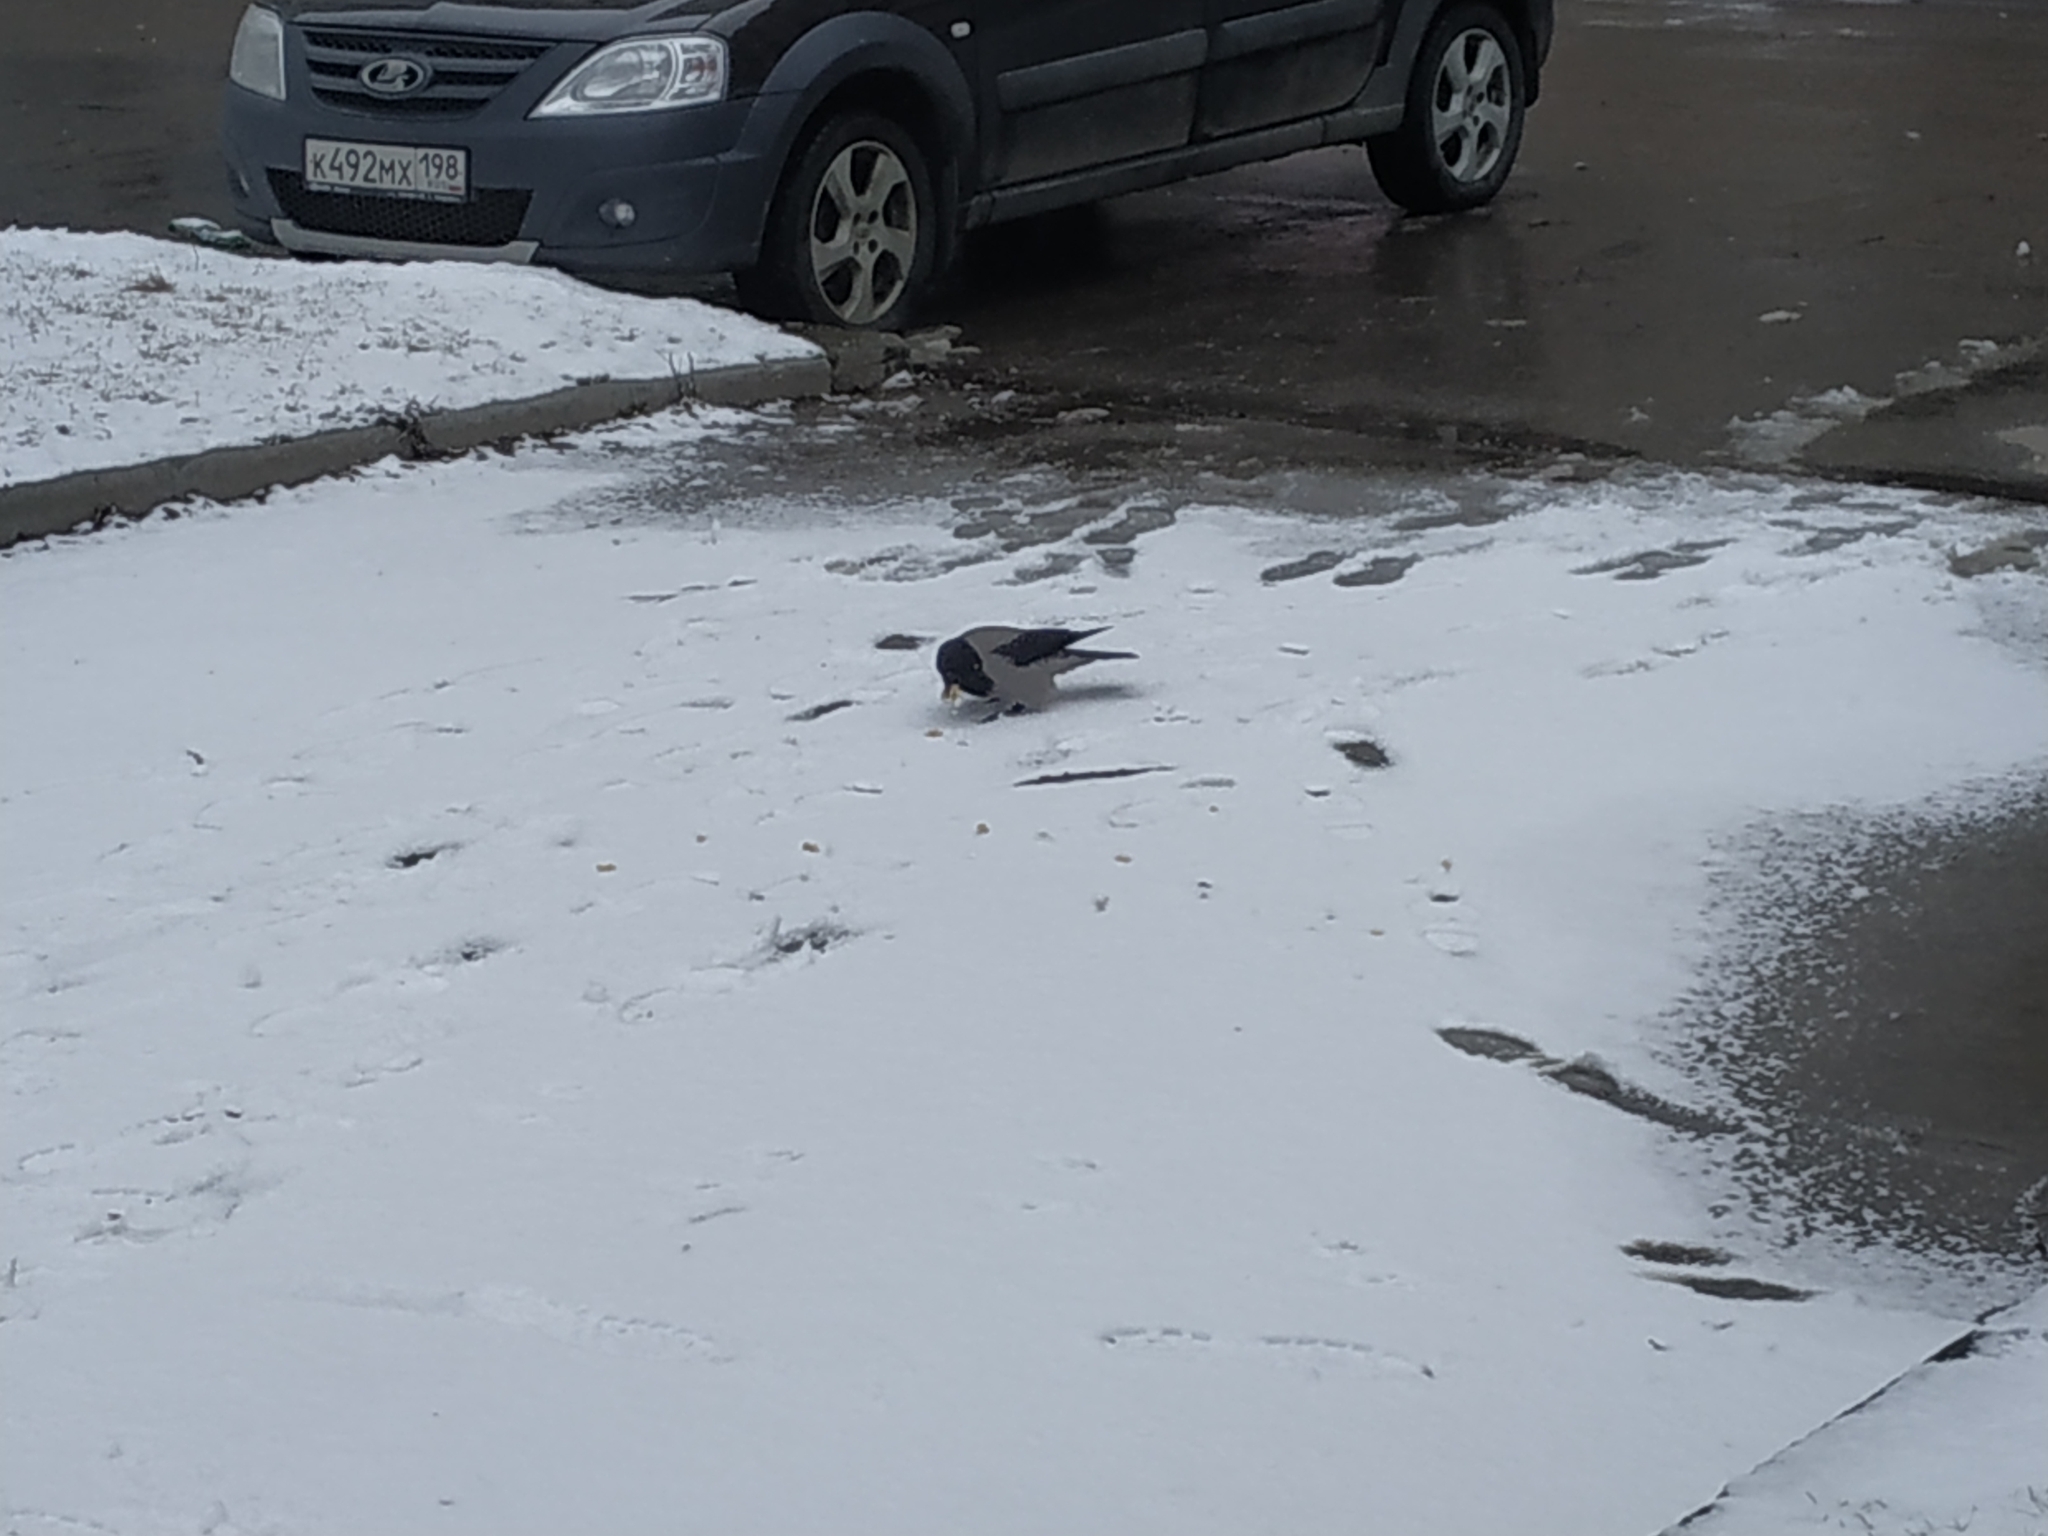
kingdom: Animalia
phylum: Chordata
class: Aves
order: Passeriformes
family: Corvidae
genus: Corvus
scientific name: Corvus cornix
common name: Hooded crow
